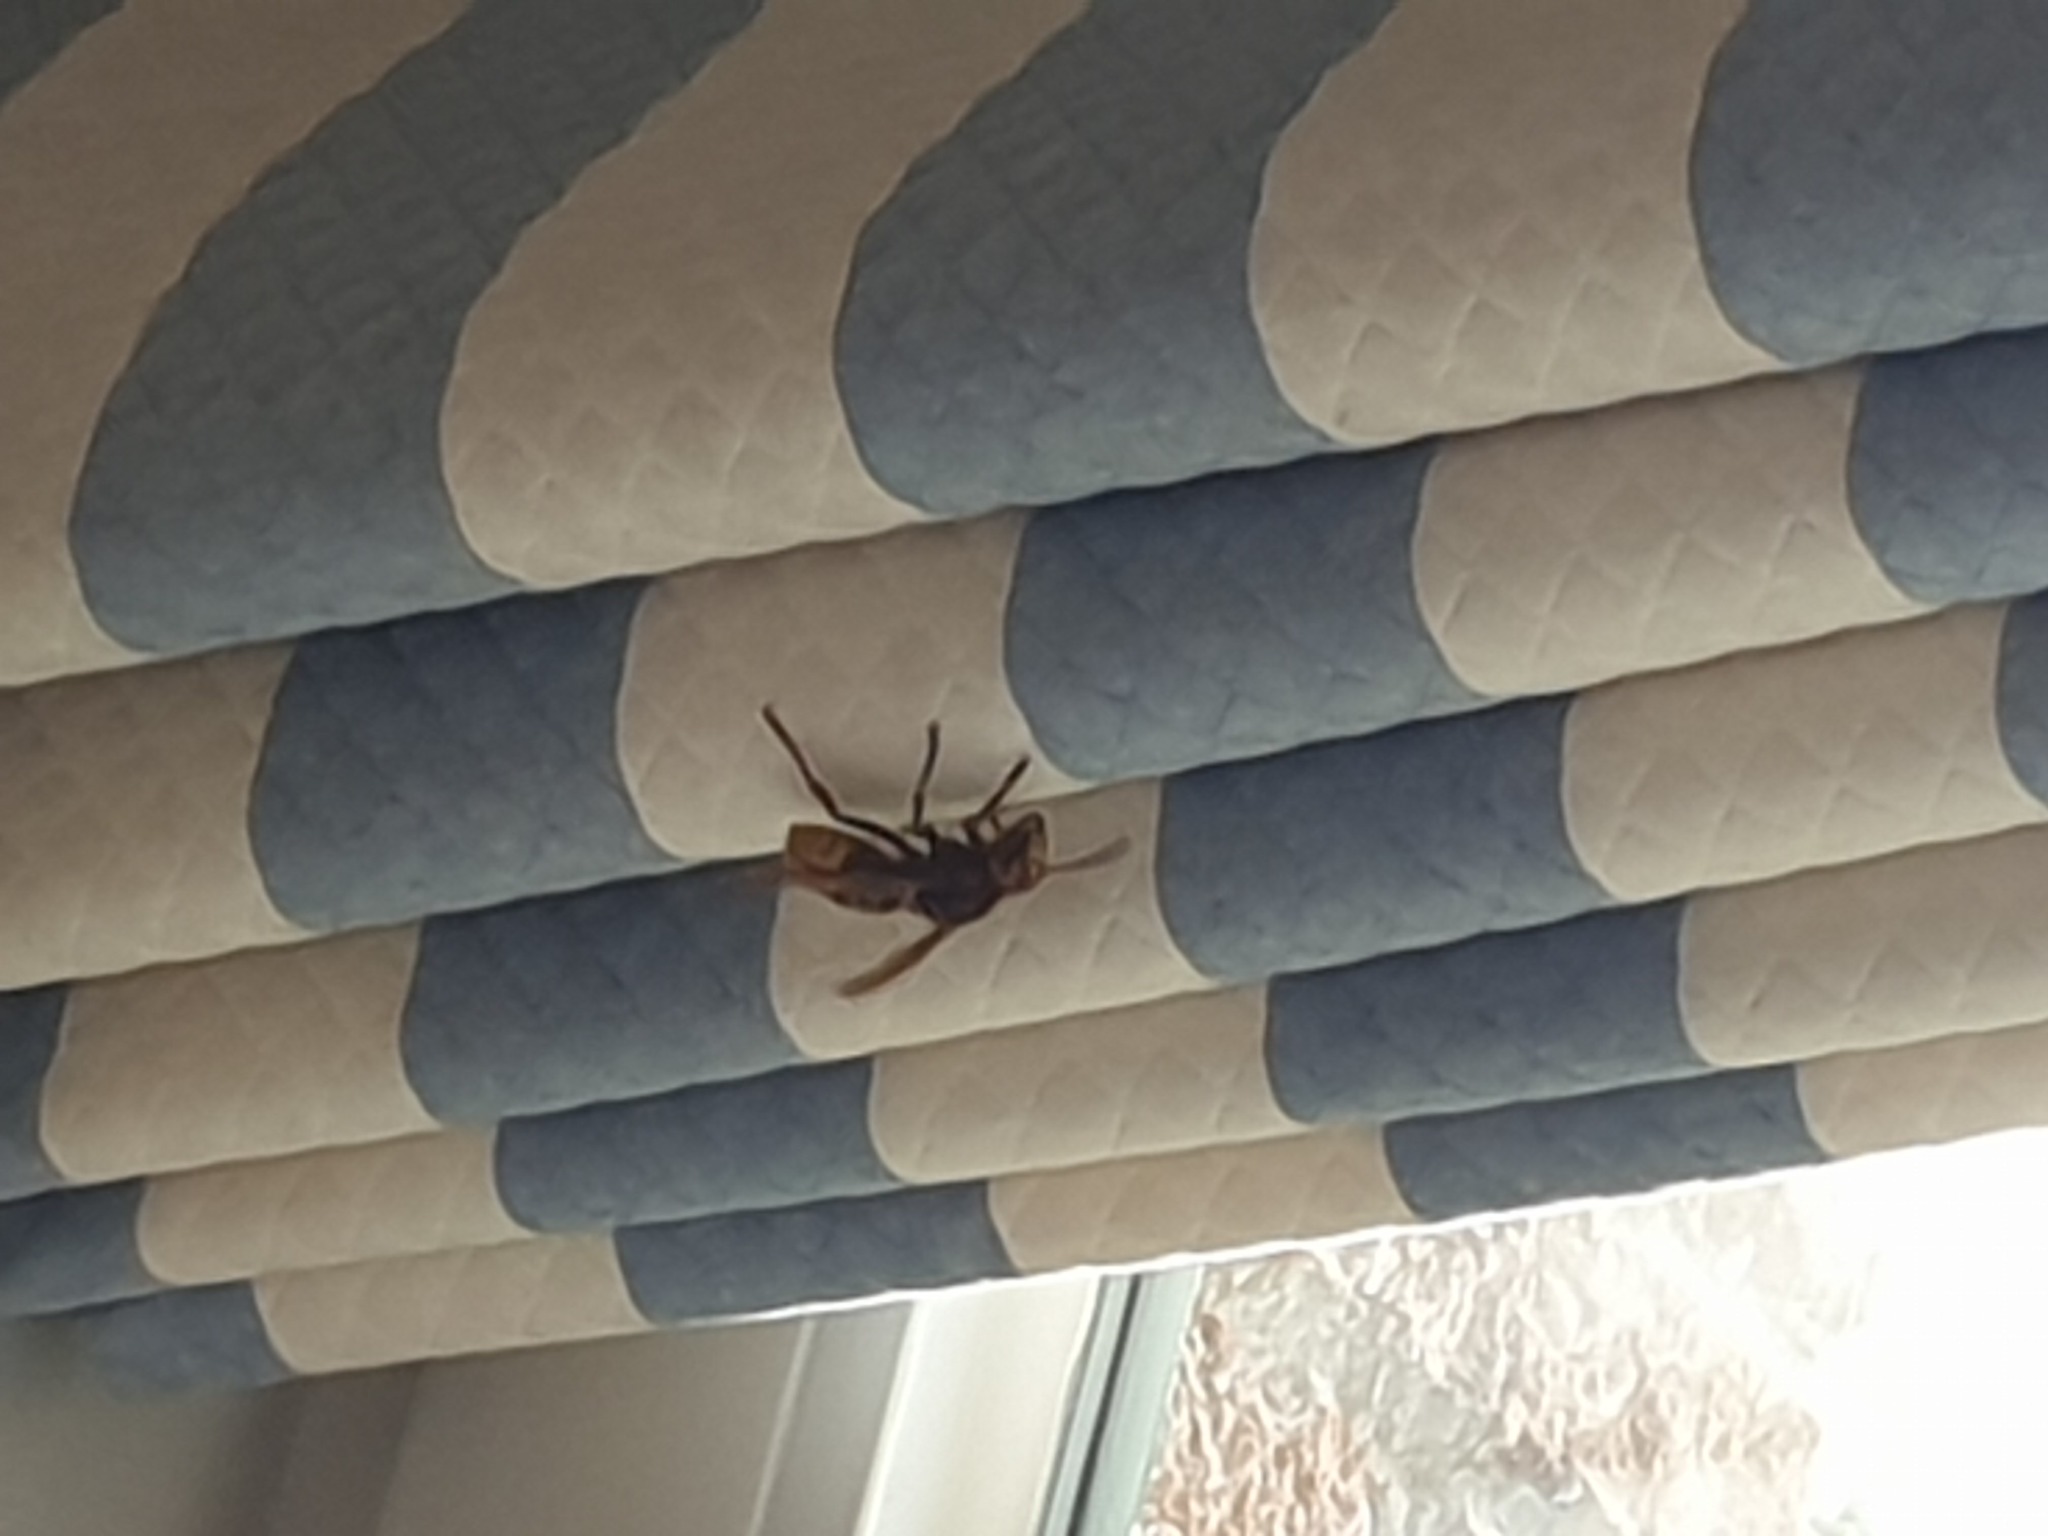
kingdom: Animalia
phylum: Arthropoda
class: Insecta
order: Hymenoptera
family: Vespidae
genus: Vespa
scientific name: Vespa crabro
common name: Hornet
